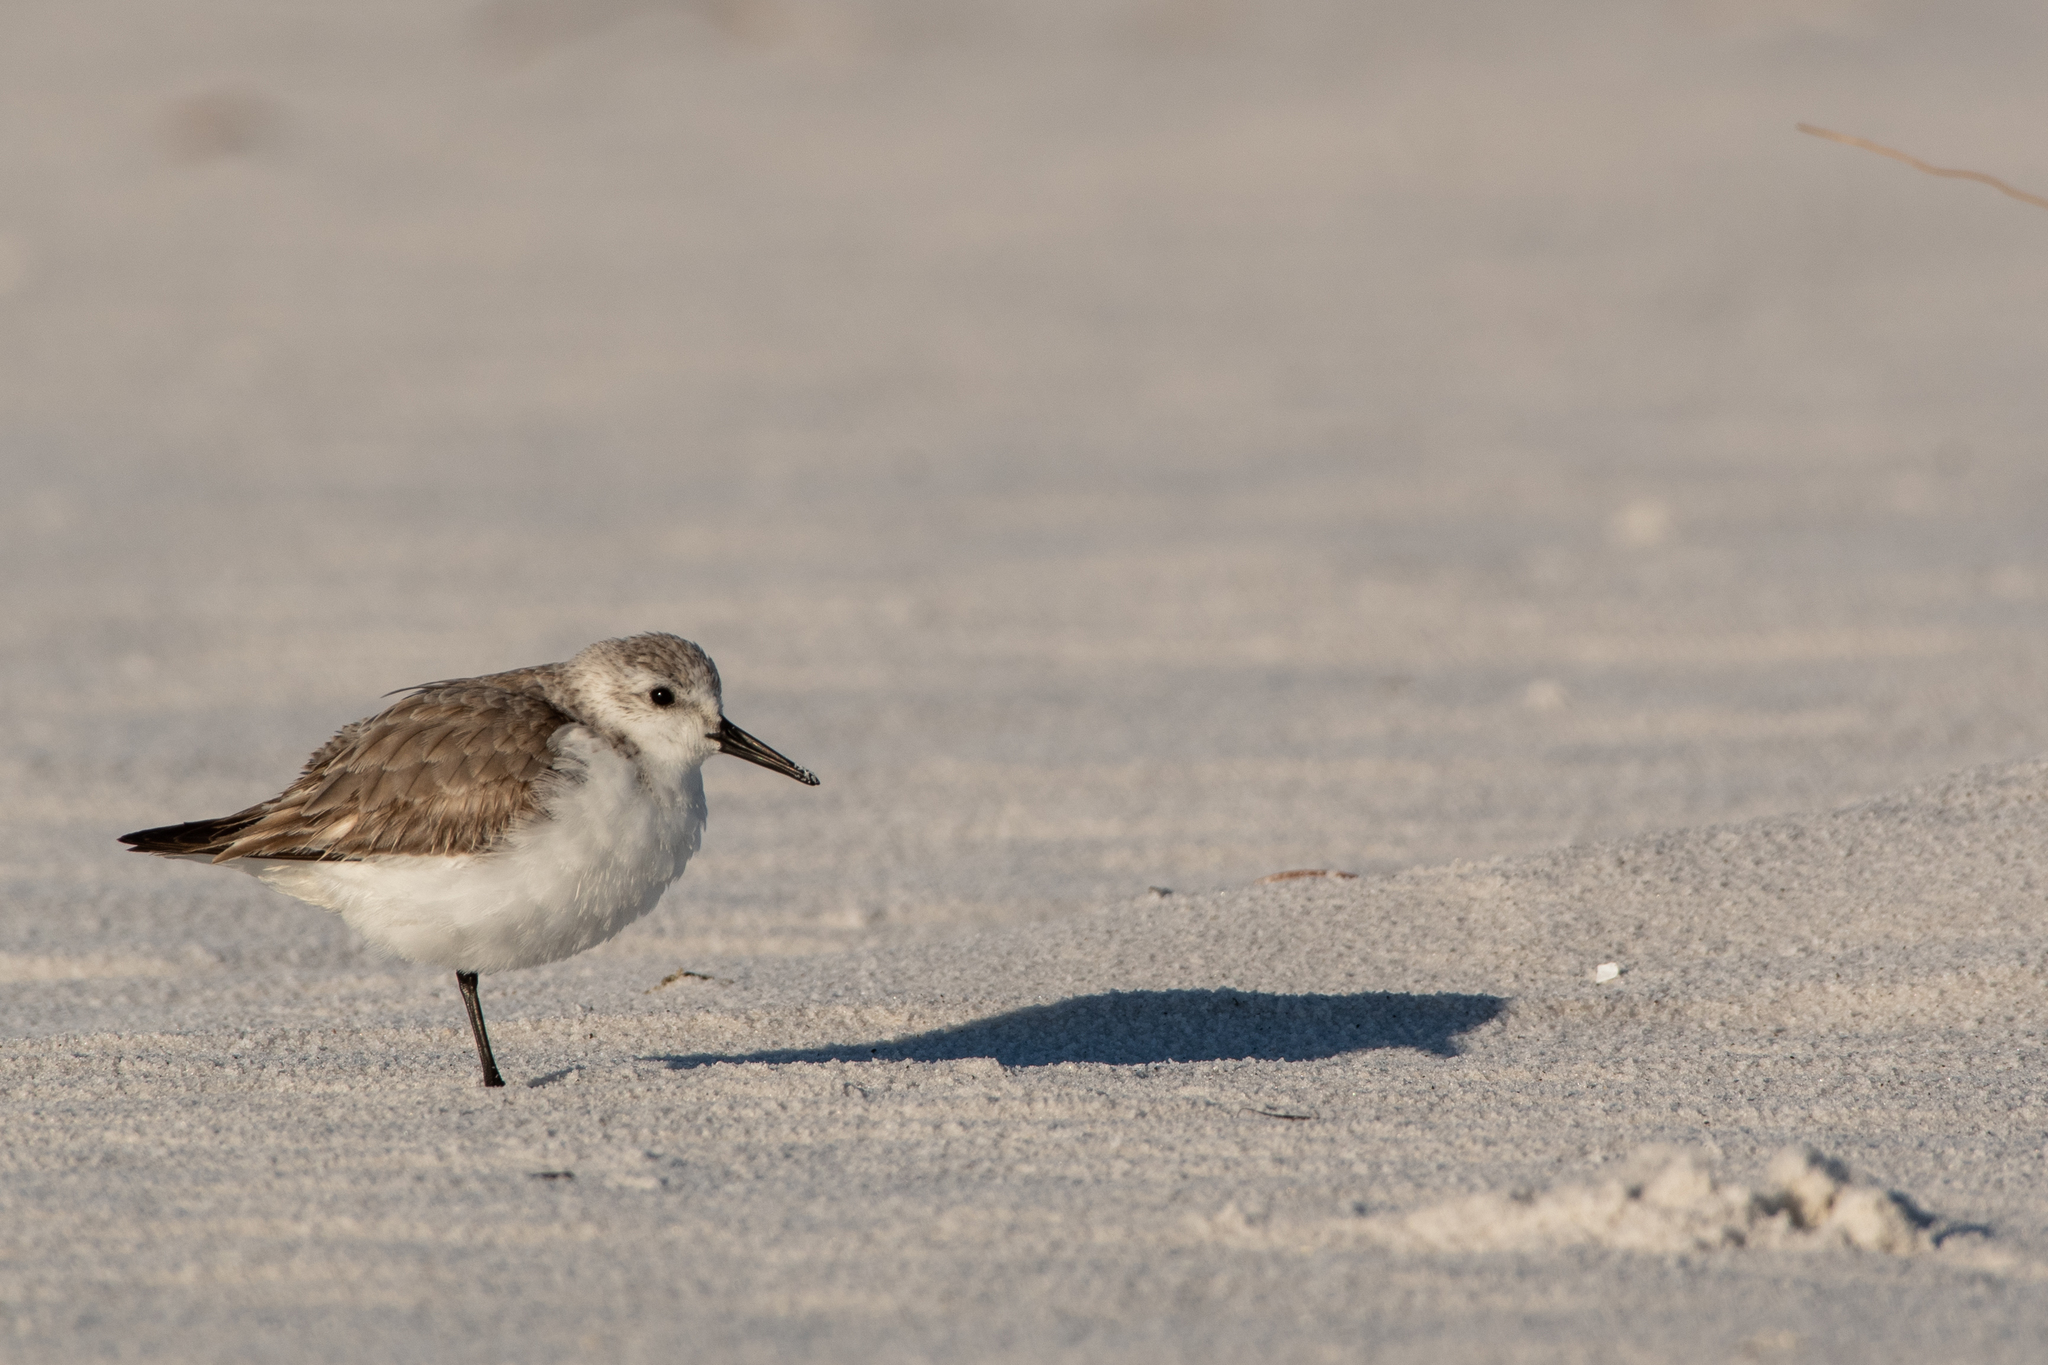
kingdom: Animalia
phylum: Chordata
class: Aves
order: Charadriiformes
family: Scolopacidae
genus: Calidris
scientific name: Calidris alba
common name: Sanderling
